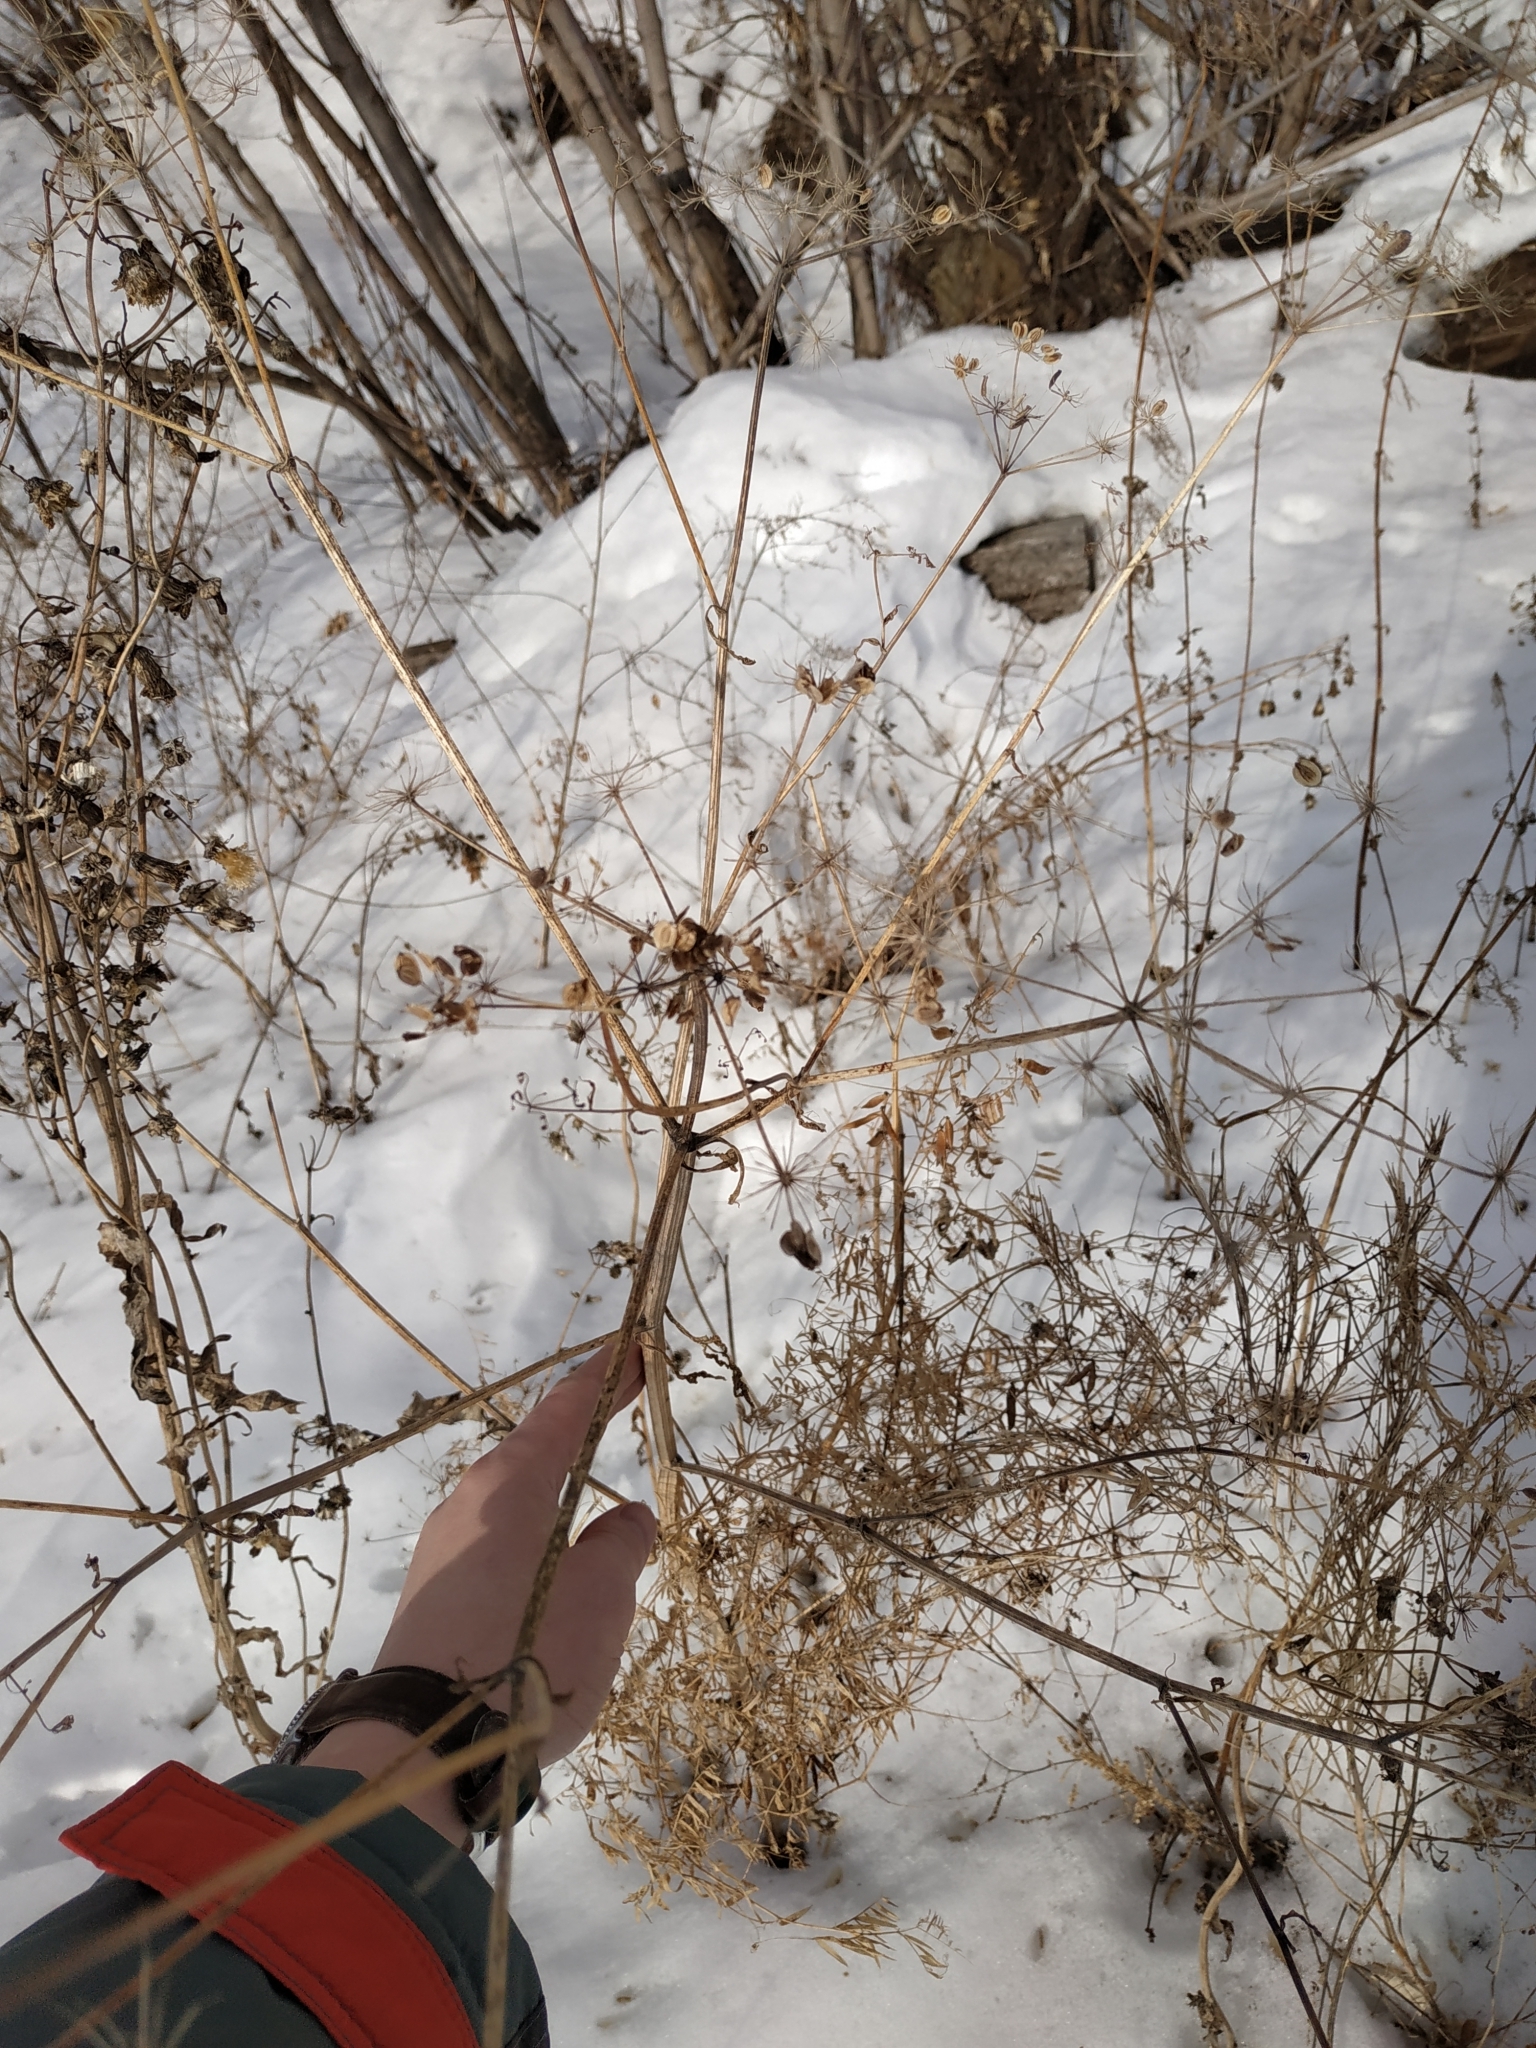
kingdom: Plantae
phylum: Tracheophyta
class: Magnoliopsida
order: Apiales
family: Apiaceae
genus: Pastinaca
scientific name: Pastinaca sativa
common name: Wild parsnip
